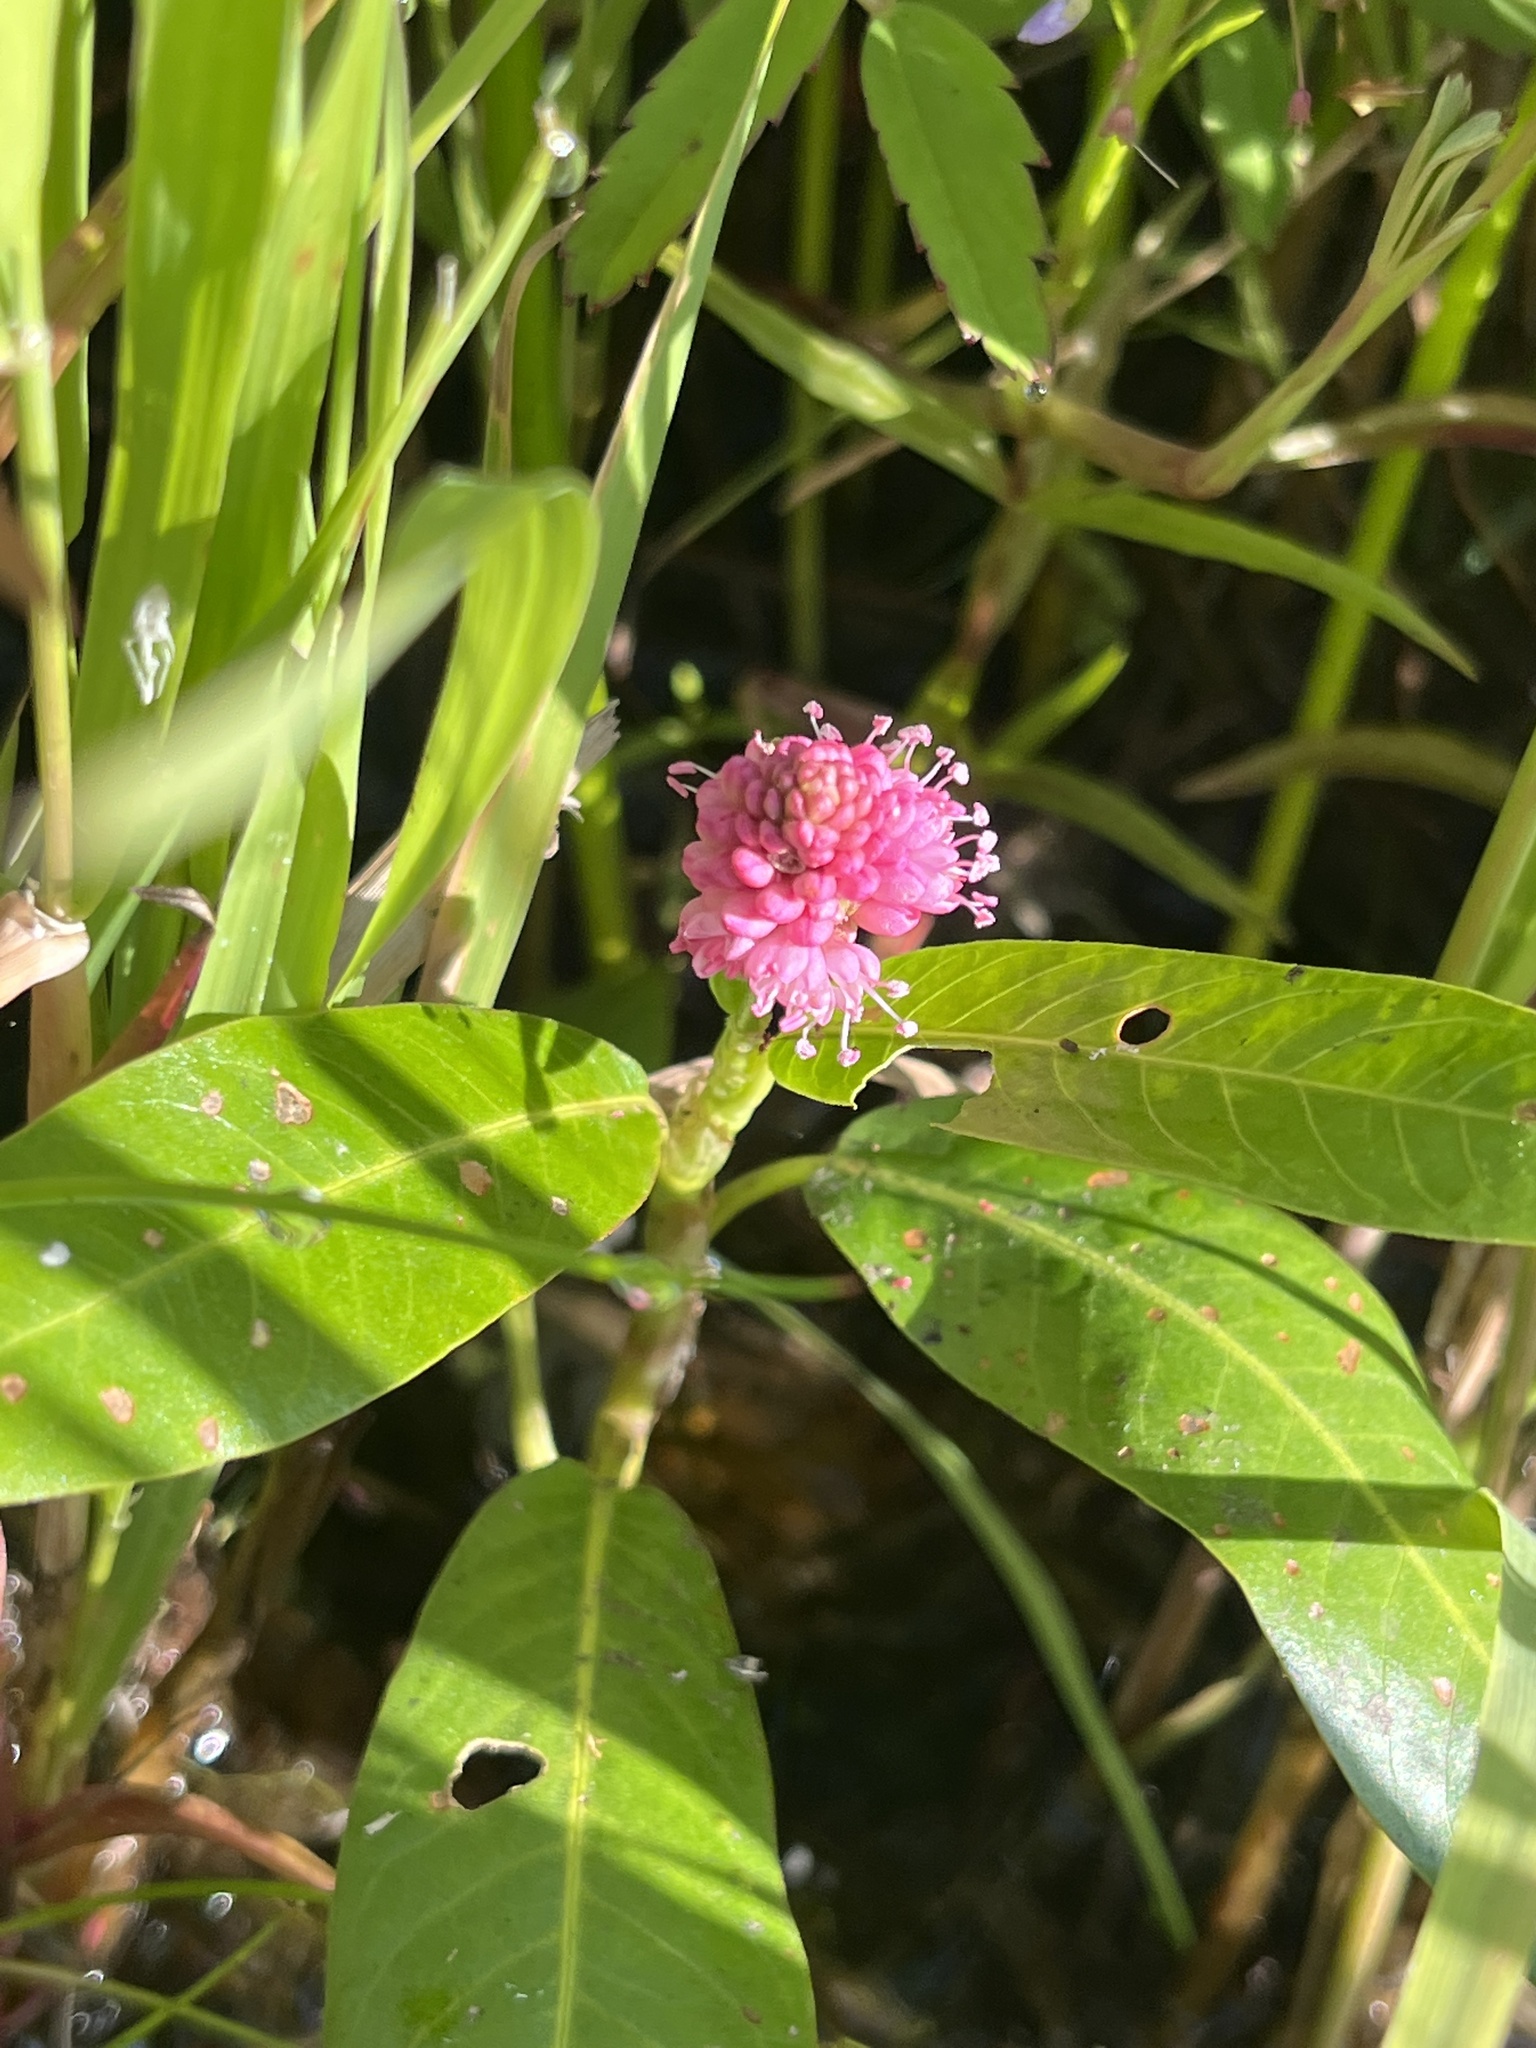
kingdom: Plantae
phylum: Tracheophyta
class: Magnoliopsida
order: Caryophyllales
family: Polygonaceae
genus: Persicaria
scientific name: Persicaria amphibia
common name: Amphibious bistort
